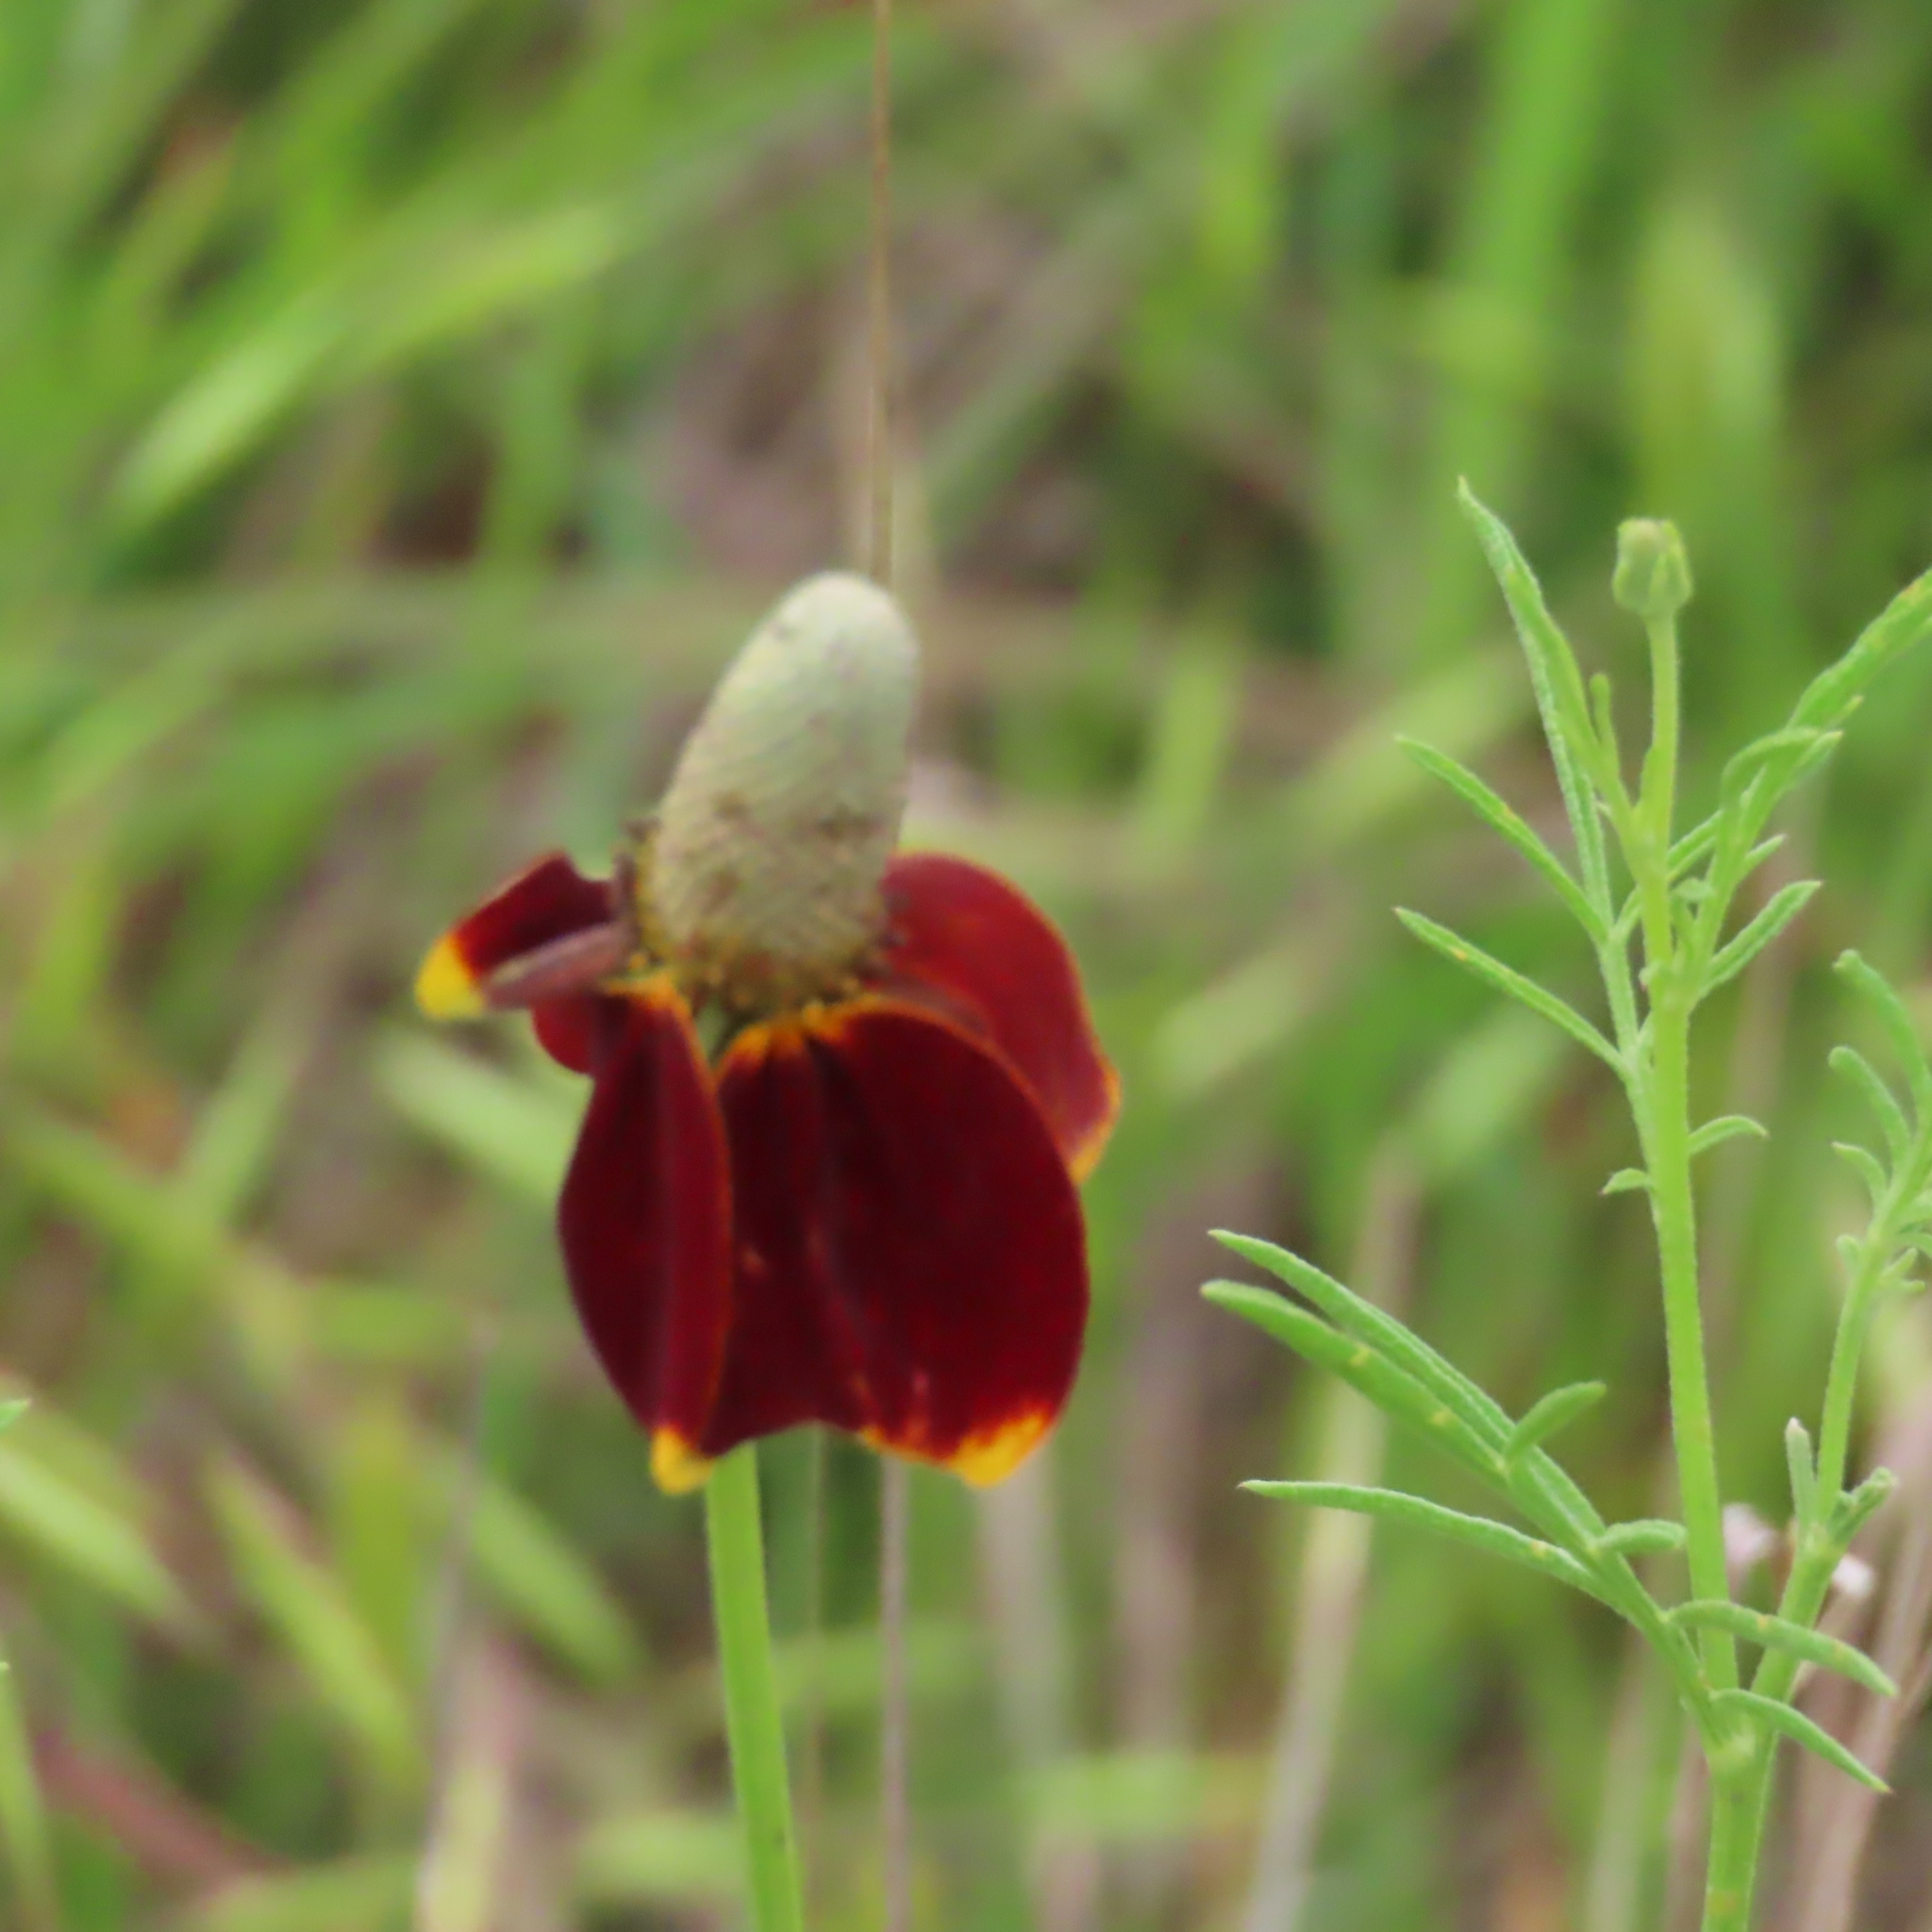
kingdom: Plantae
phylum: Tracheophyta
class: Magnoliopsida
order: Asterales
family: Asteraceae
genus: Ratibida
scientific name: Ratibida columnifera
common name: Prairie coneflower
